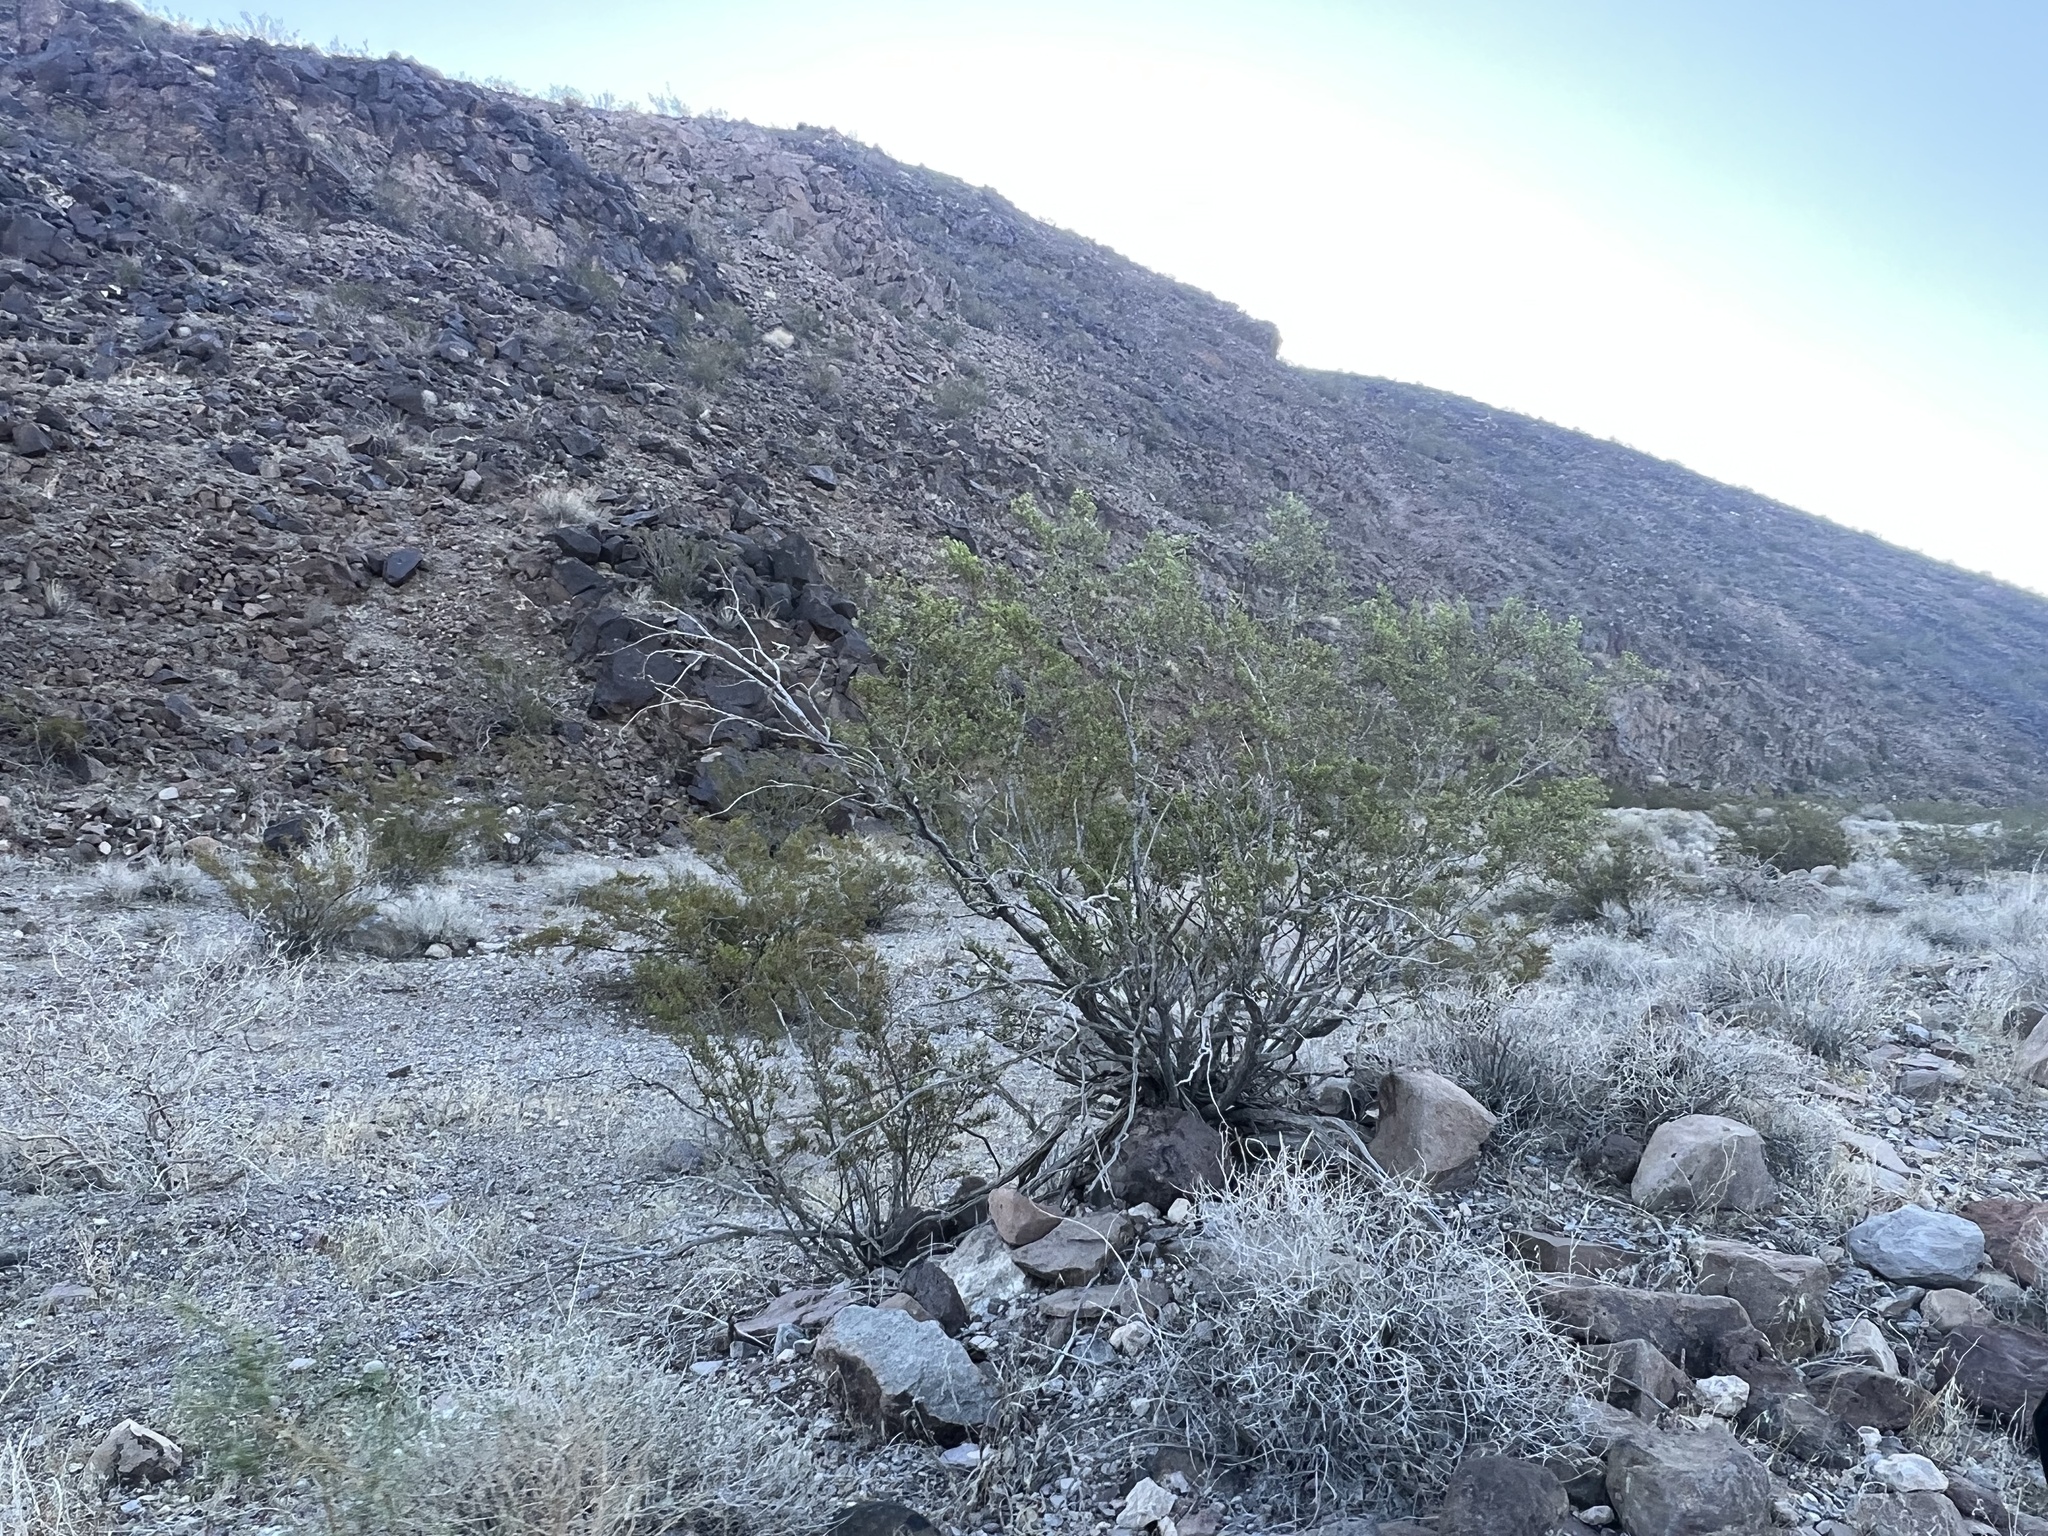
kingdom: Plantae
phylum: Tracheophyta
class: Magnoliopsida
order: Zygophyllales
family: Zygophyllaceae
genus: Larrea
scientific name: Larrea tridentata
